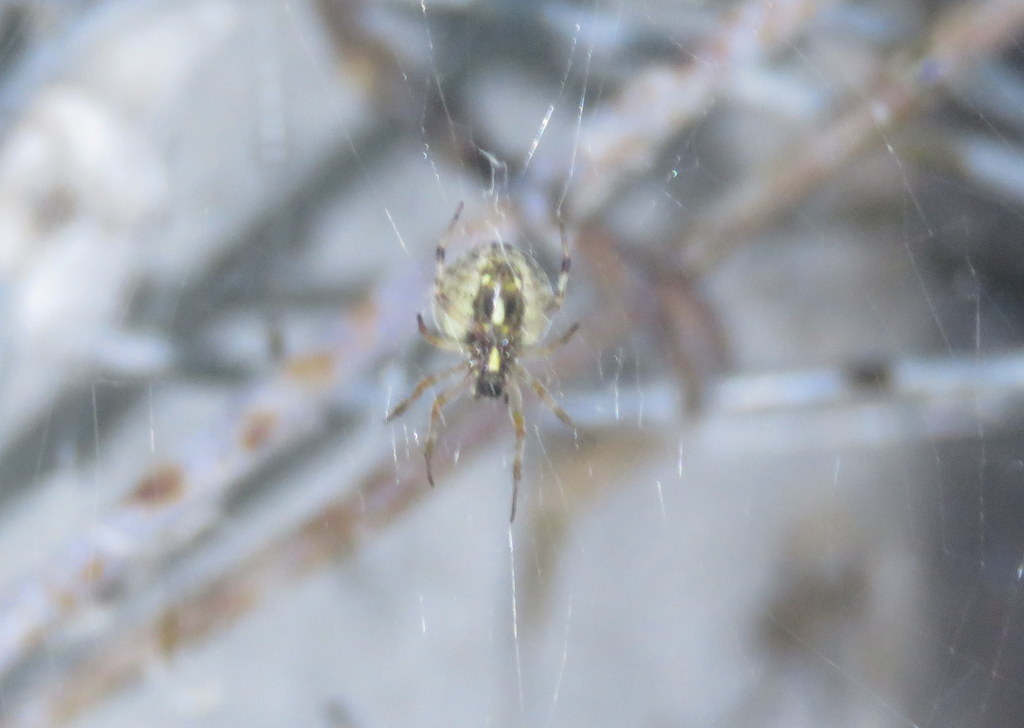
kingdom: Animalia
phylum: Arthropoda
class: Arachnida
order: Araneae
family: Araneidae
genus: Metepeira
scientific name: Metepeira
